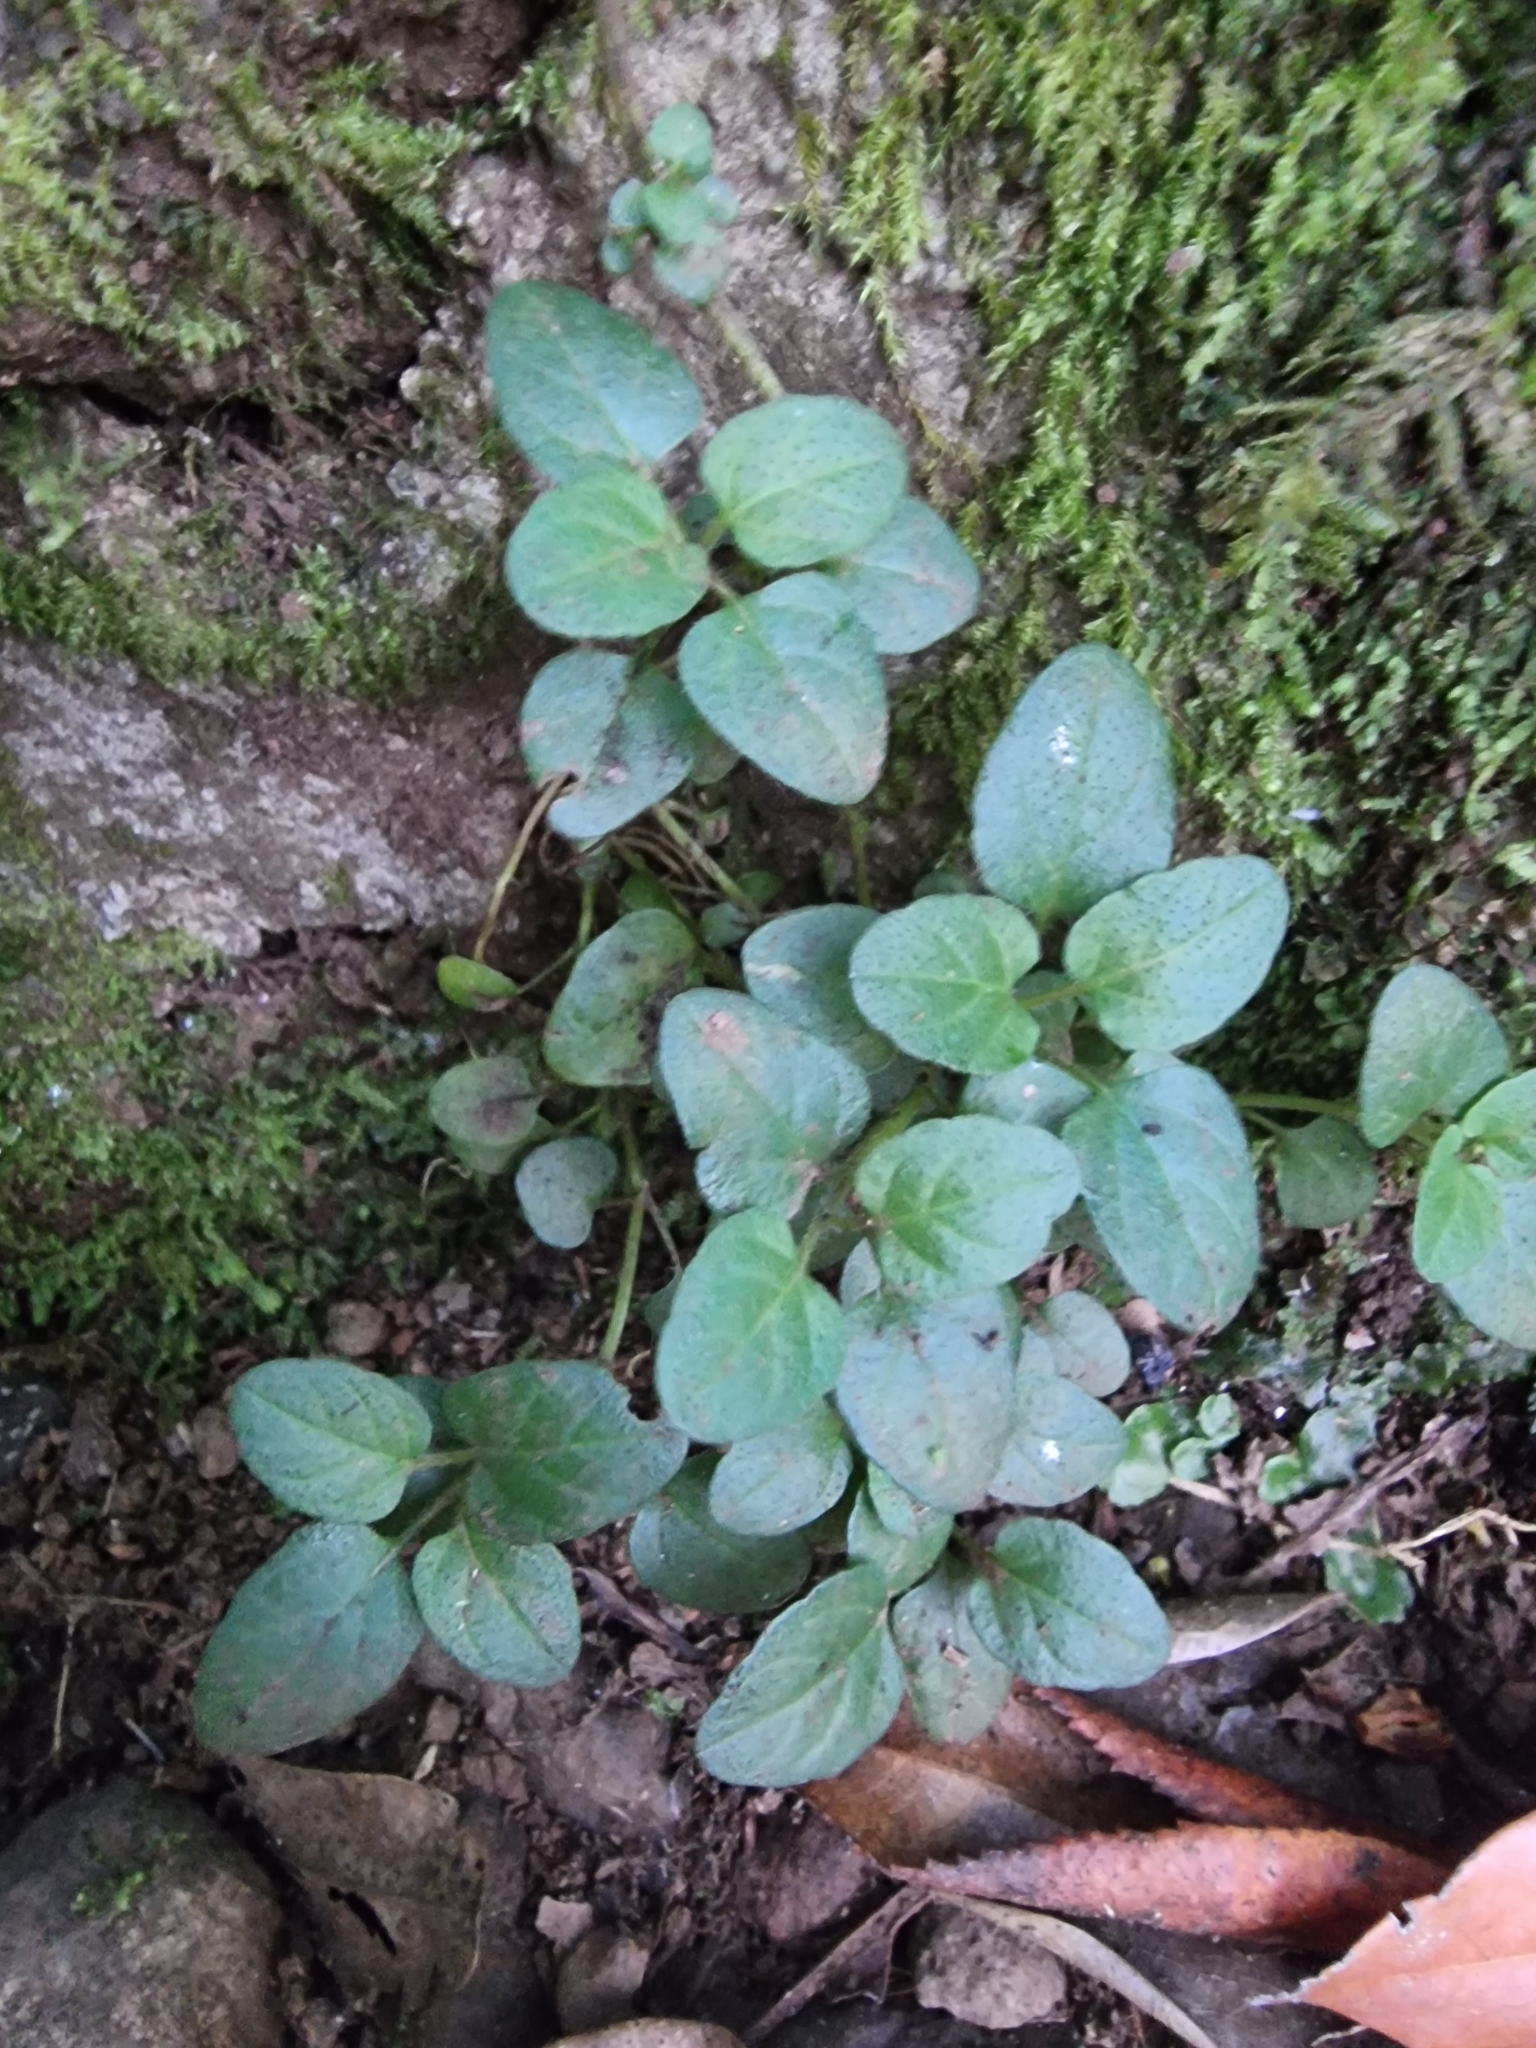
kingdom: Plantae
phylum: Tracheophyta
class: Magnoliopsida
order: Lamiales
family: Lamiaceae
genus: Prunella
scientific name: Prunella vulgaris
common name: Heal-all
